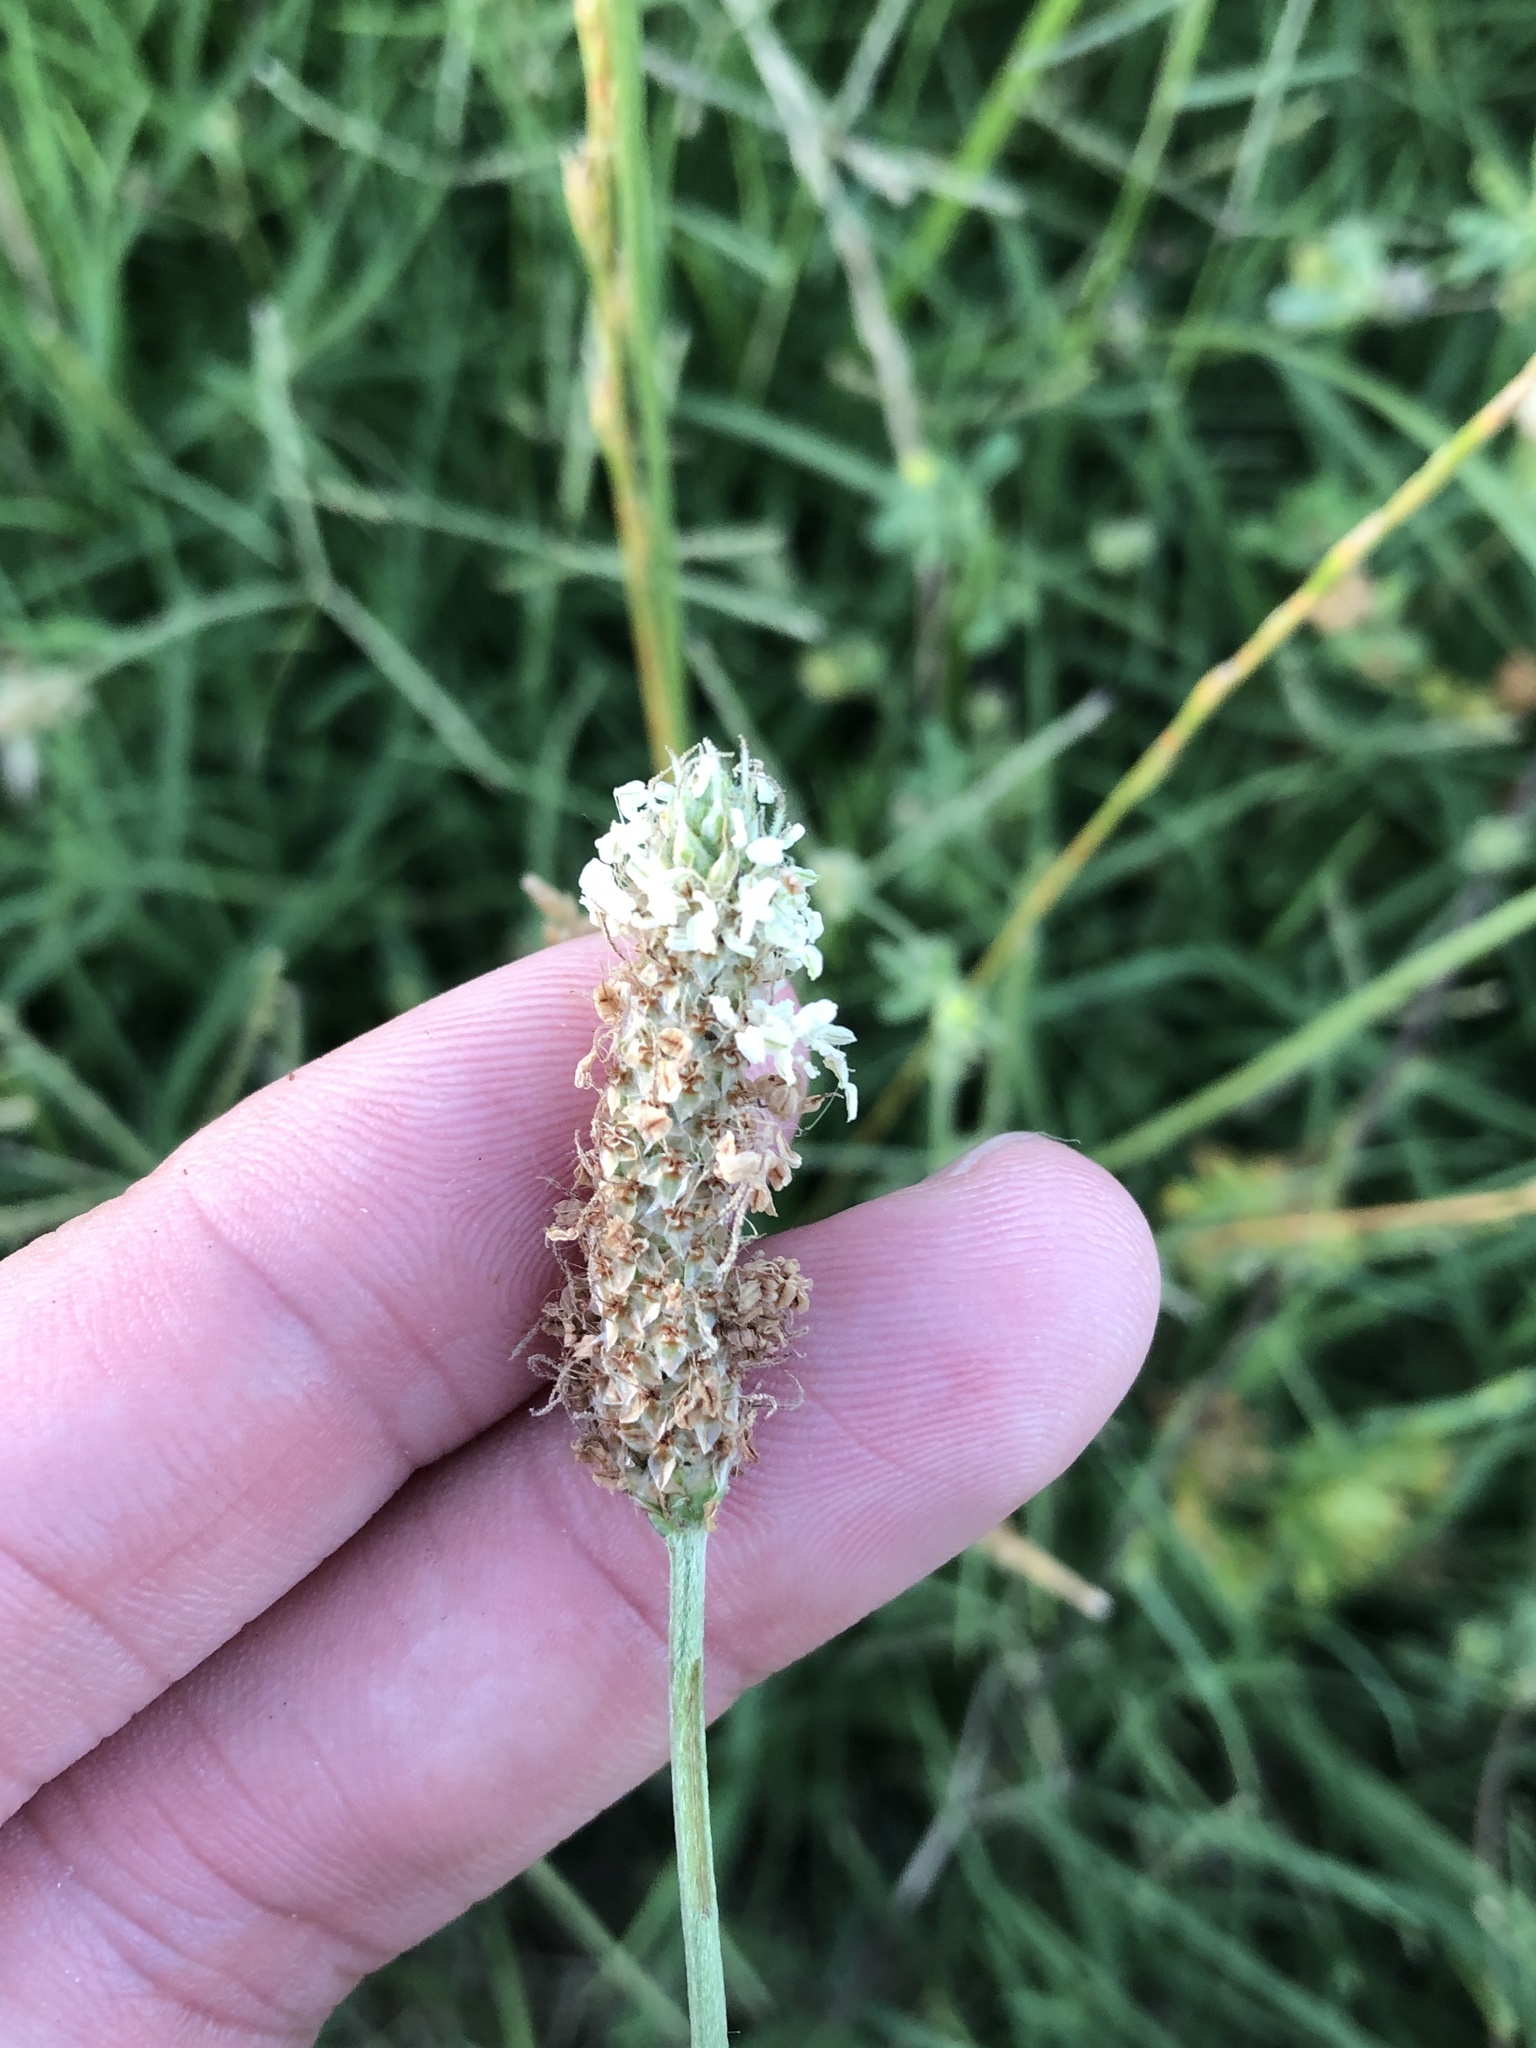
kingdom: Plantae
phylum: Tracheophyta
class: Magnoliopsida
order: Lamiales
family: Plantaginaceae
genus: Plantago
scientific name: Plantago lanceolata
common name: Ribwort plantain
